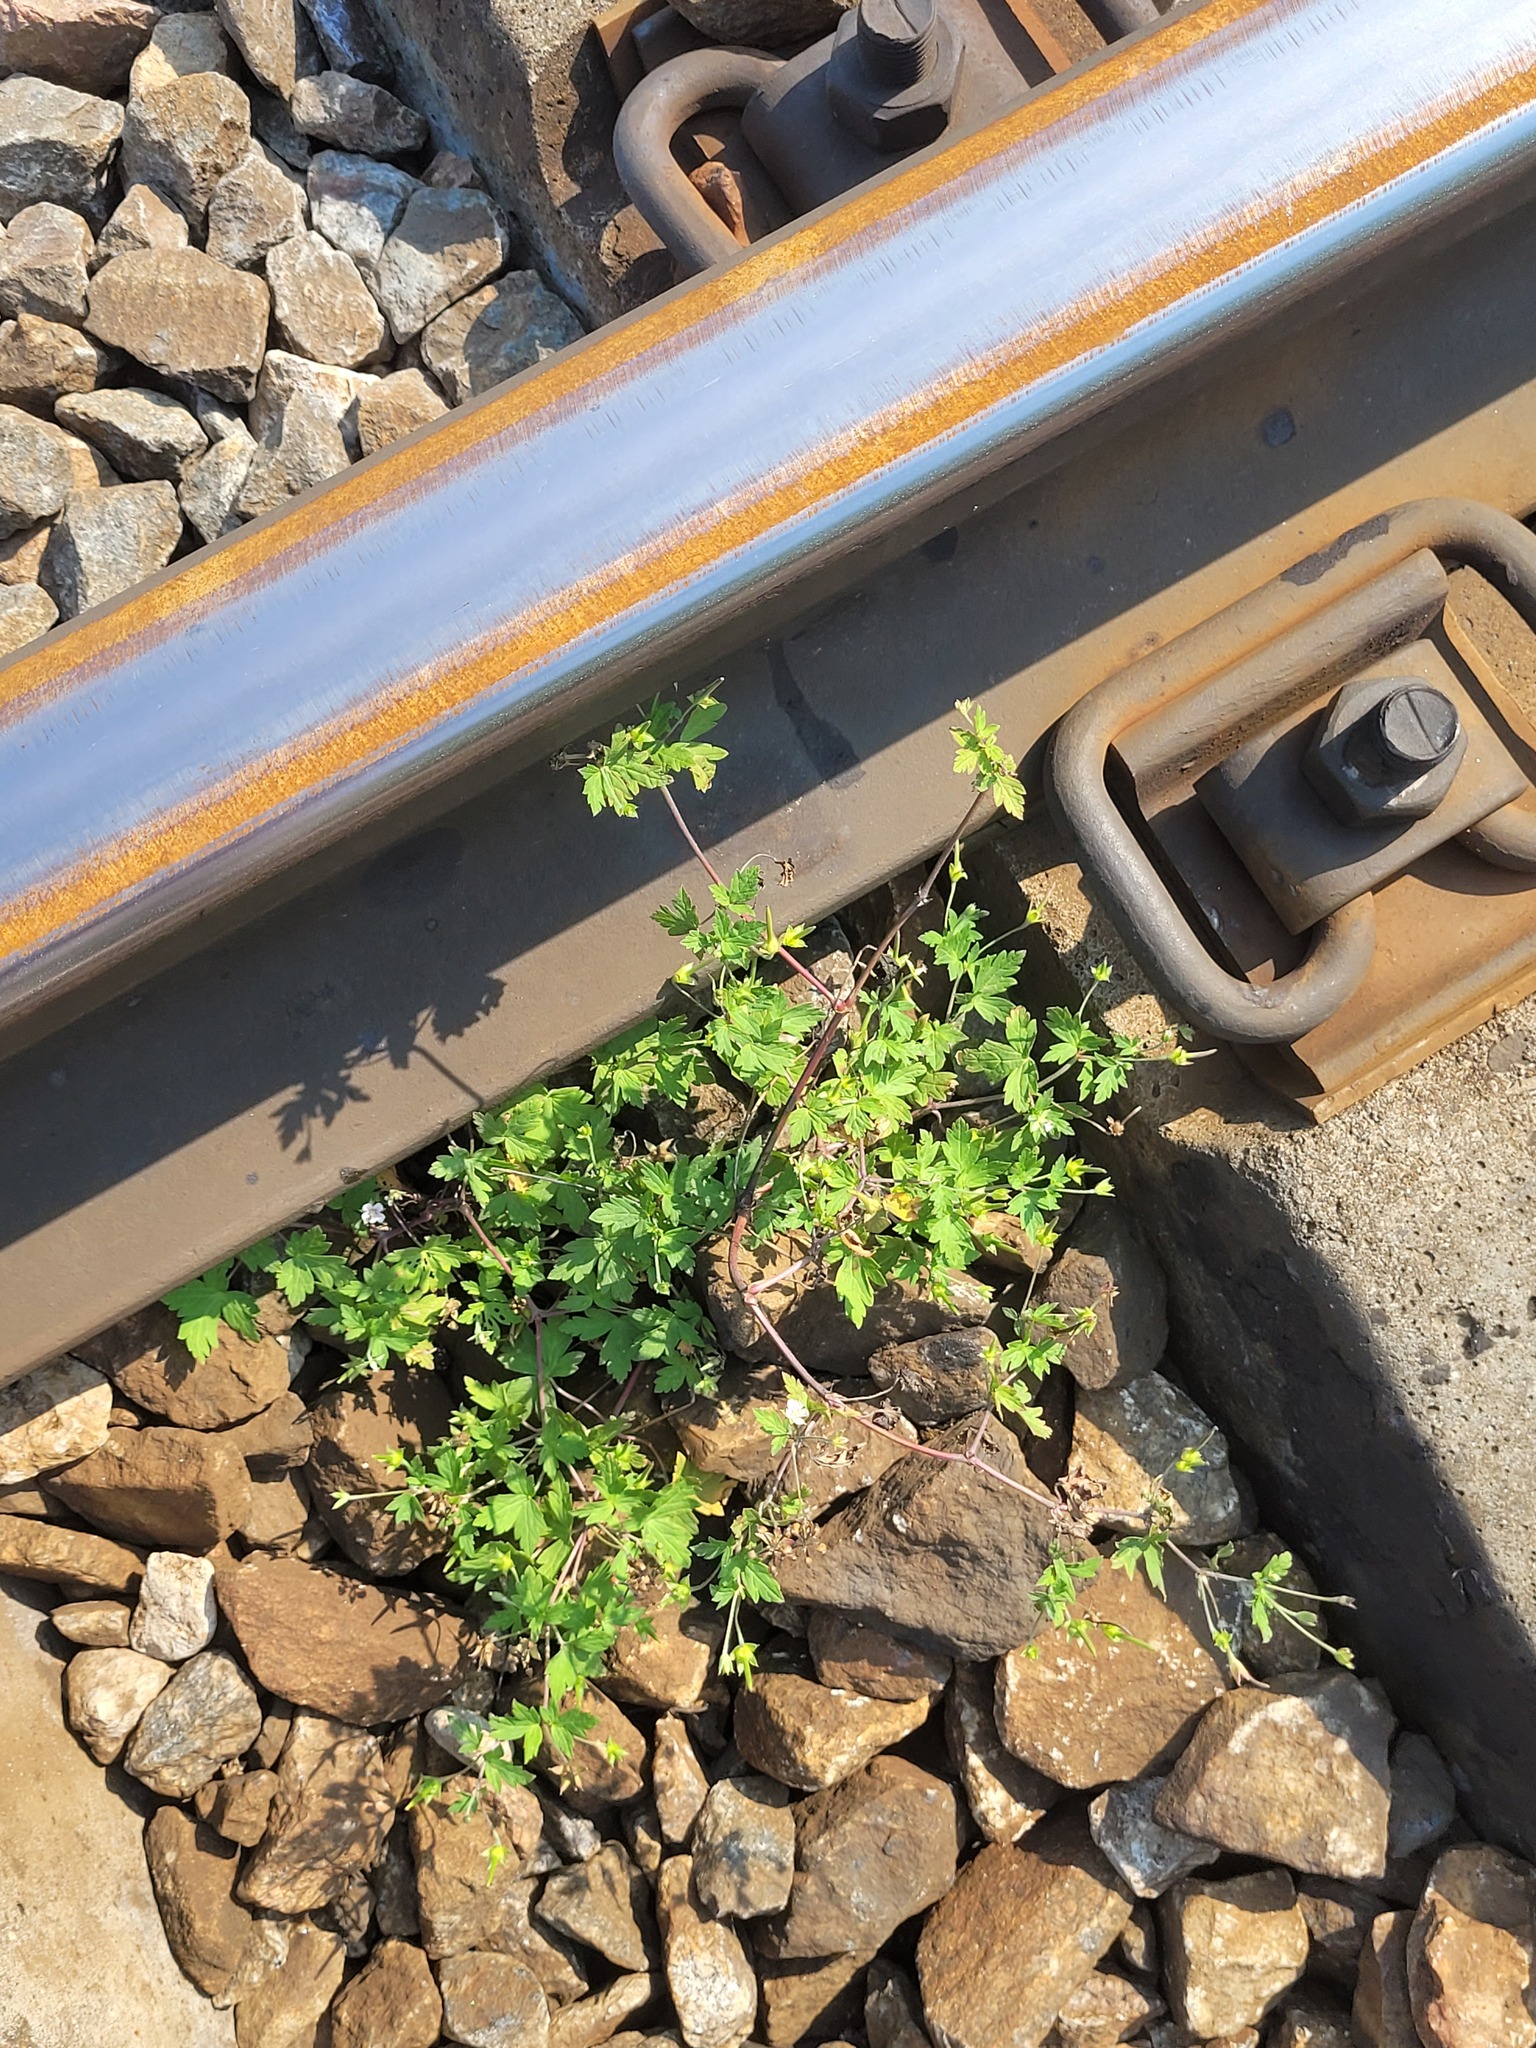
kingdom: Plantae
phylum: Tracheophyta
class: Magnoliopsida
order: Geraniales
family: Geraniaceae
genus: Geranium
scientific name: Geranium sibiricum
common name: Siberian crane's-bill
